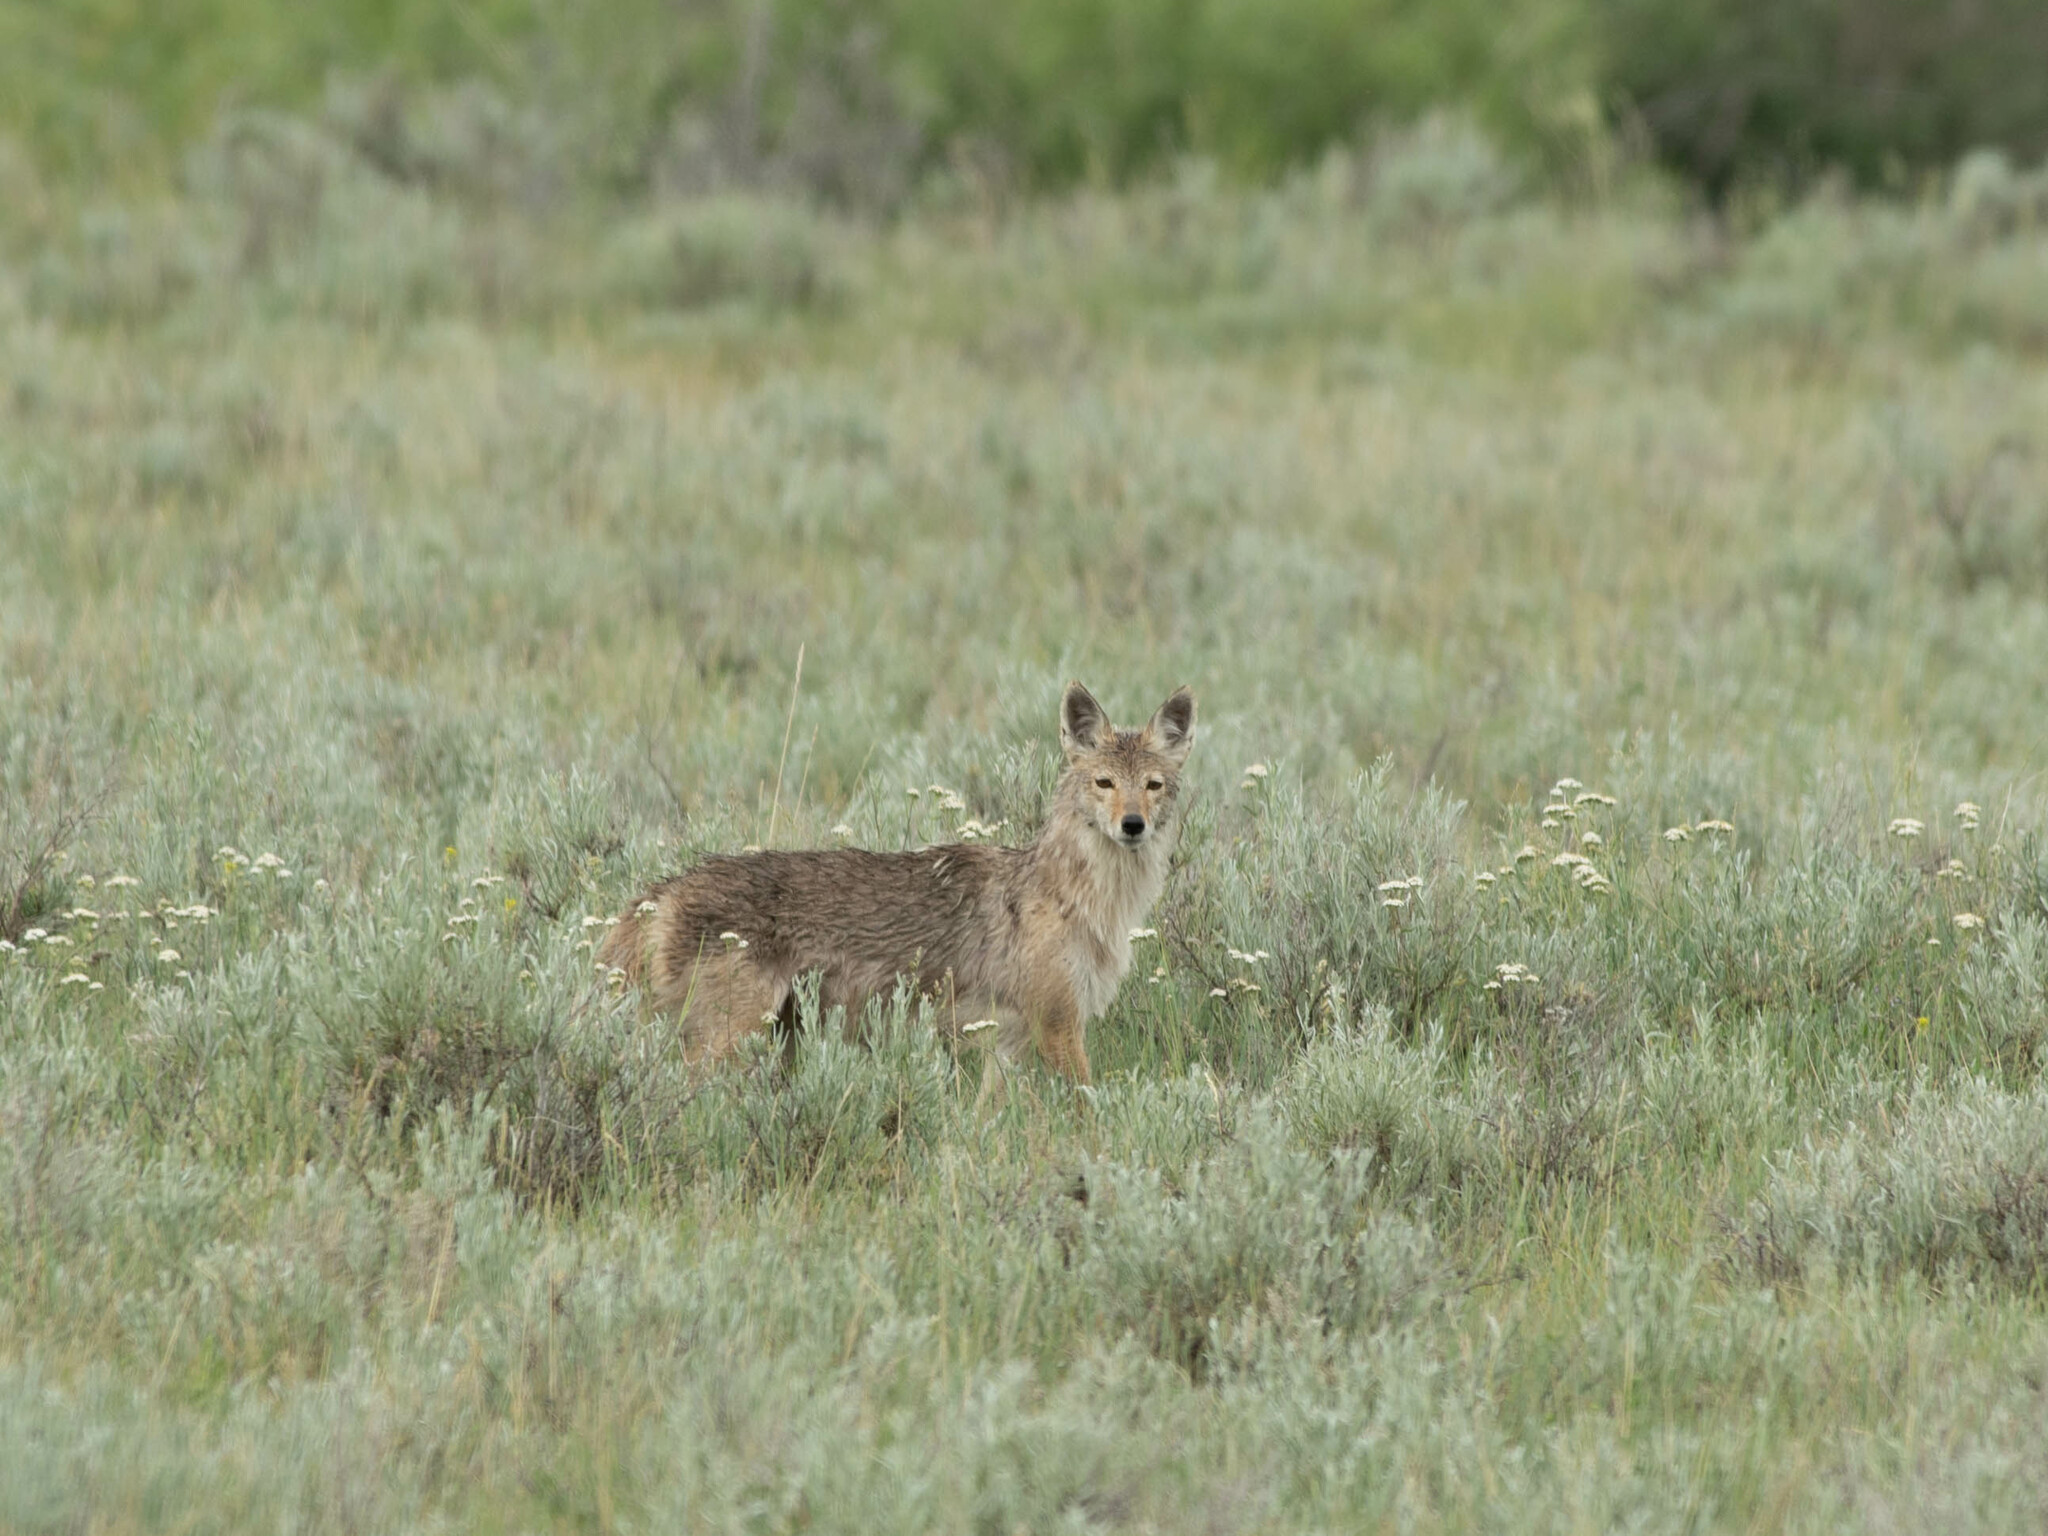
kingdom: Animalia
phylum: Chordata
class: Mammalia
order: Carnivora
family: Canidae
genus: Canis
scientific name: Canis latrans
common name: Coyote
